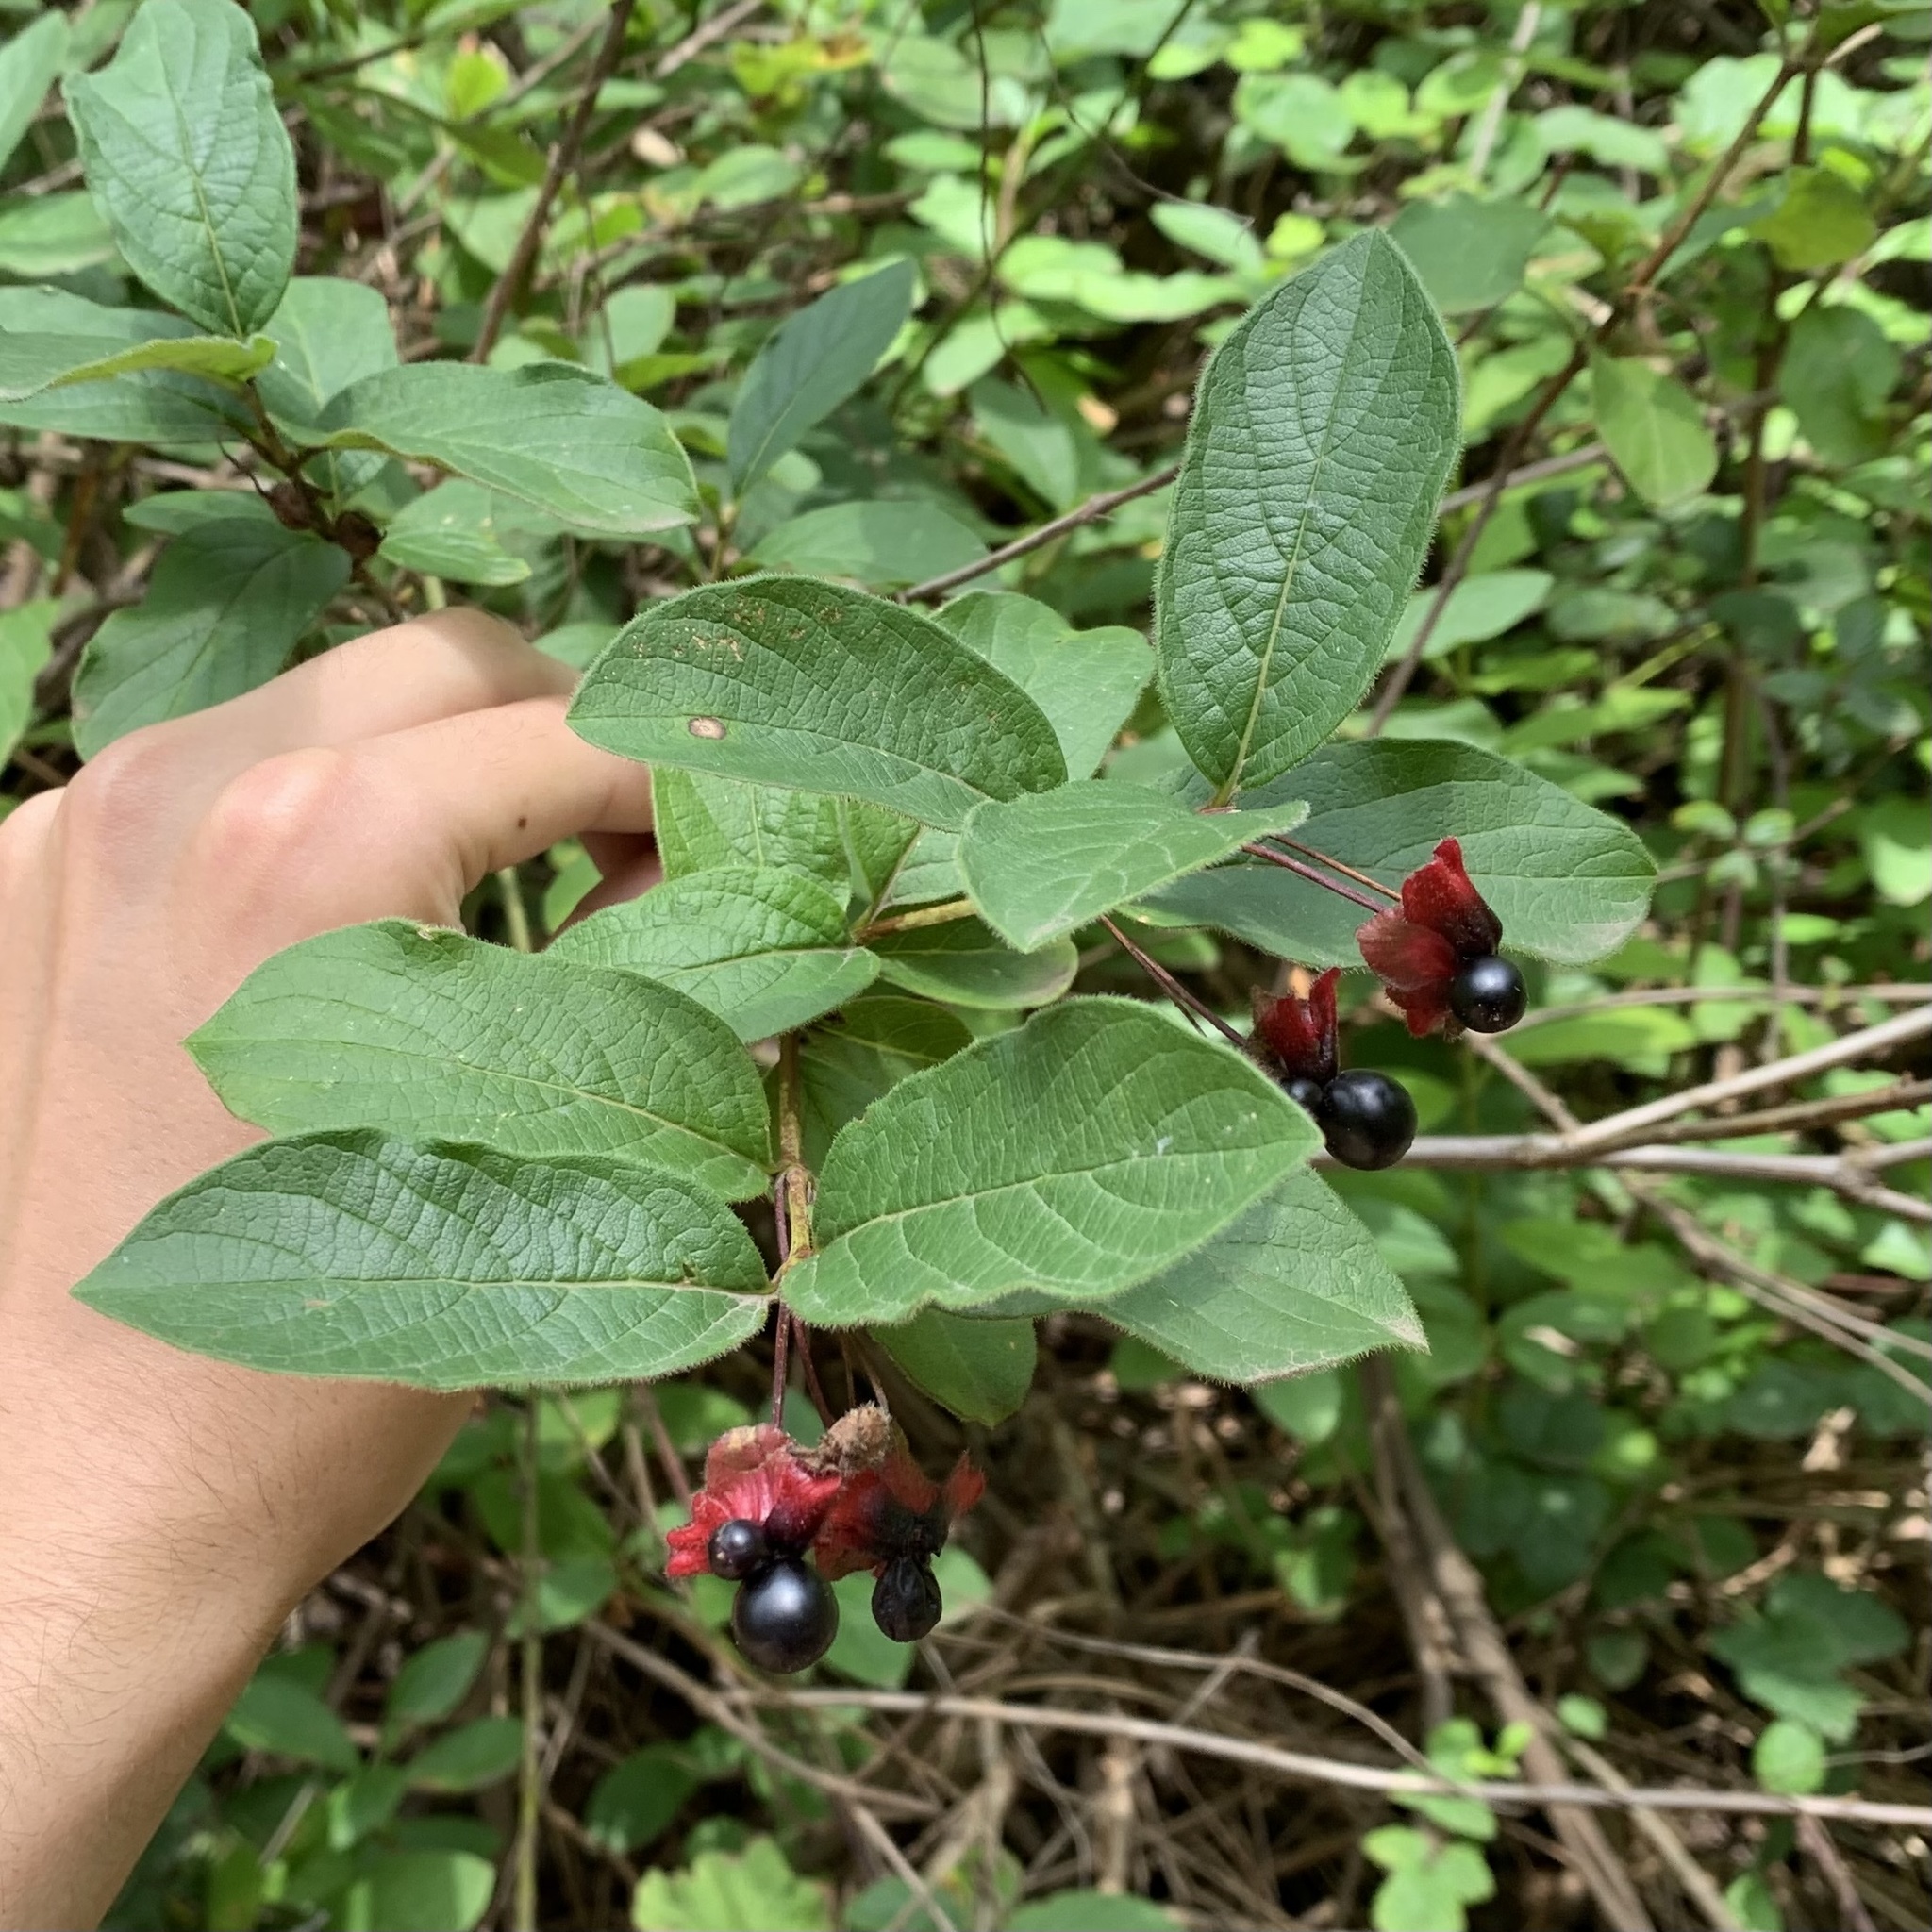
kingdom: Plantae
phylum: Tracheophyta
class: Magnoliopsida
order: Dipsacales
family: Caprifoliaceae
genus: Lonicera
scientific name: Lonicera involucrata
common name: Californian honeysuckle
